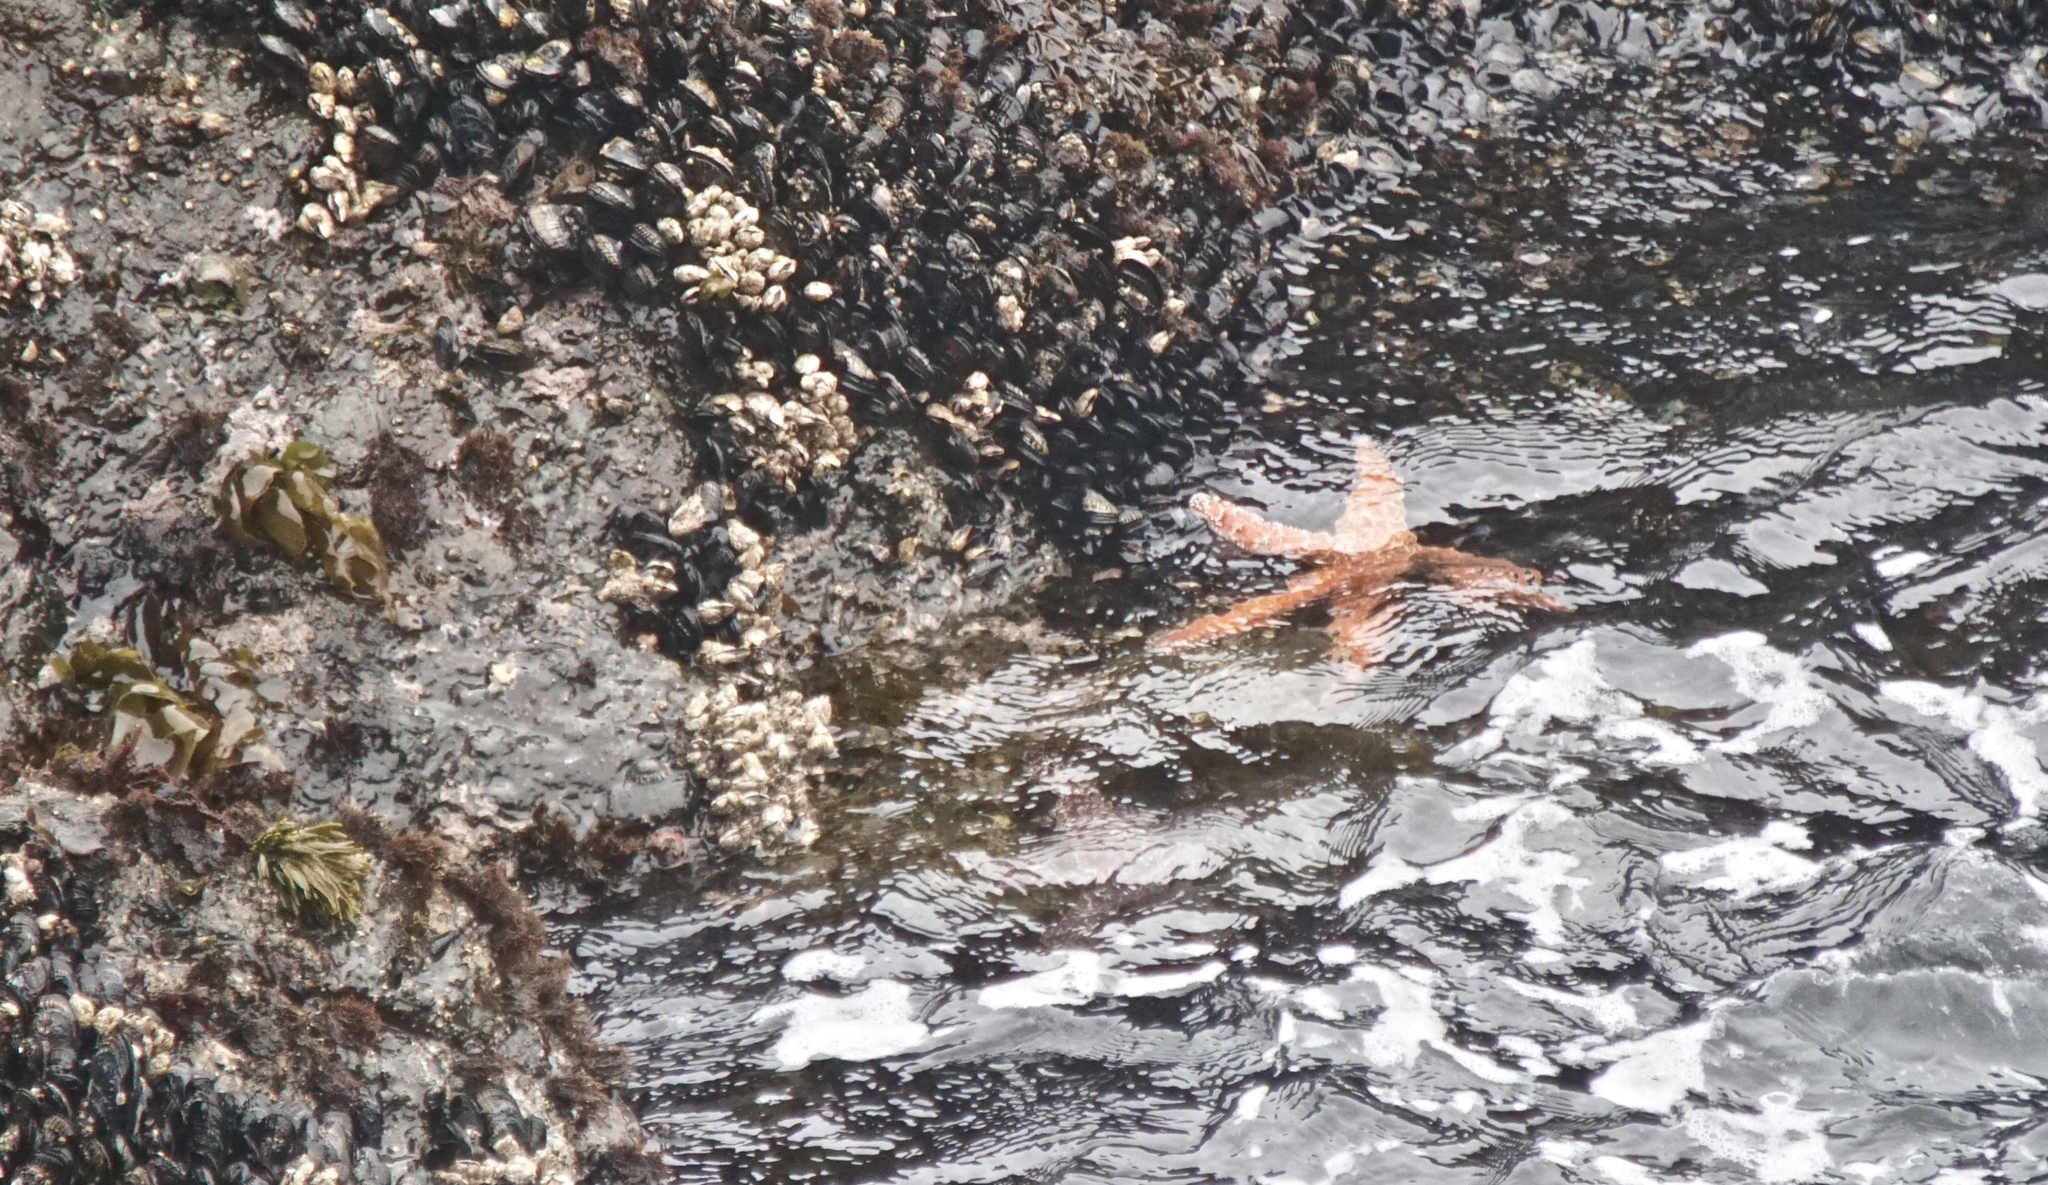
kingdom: Animalia
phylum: Echinodermata
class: Asteroidea
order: Forcipulatida
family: Asteriidae
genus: Pisaster
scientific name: Pisaster ochraceus
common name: Ochre stars
